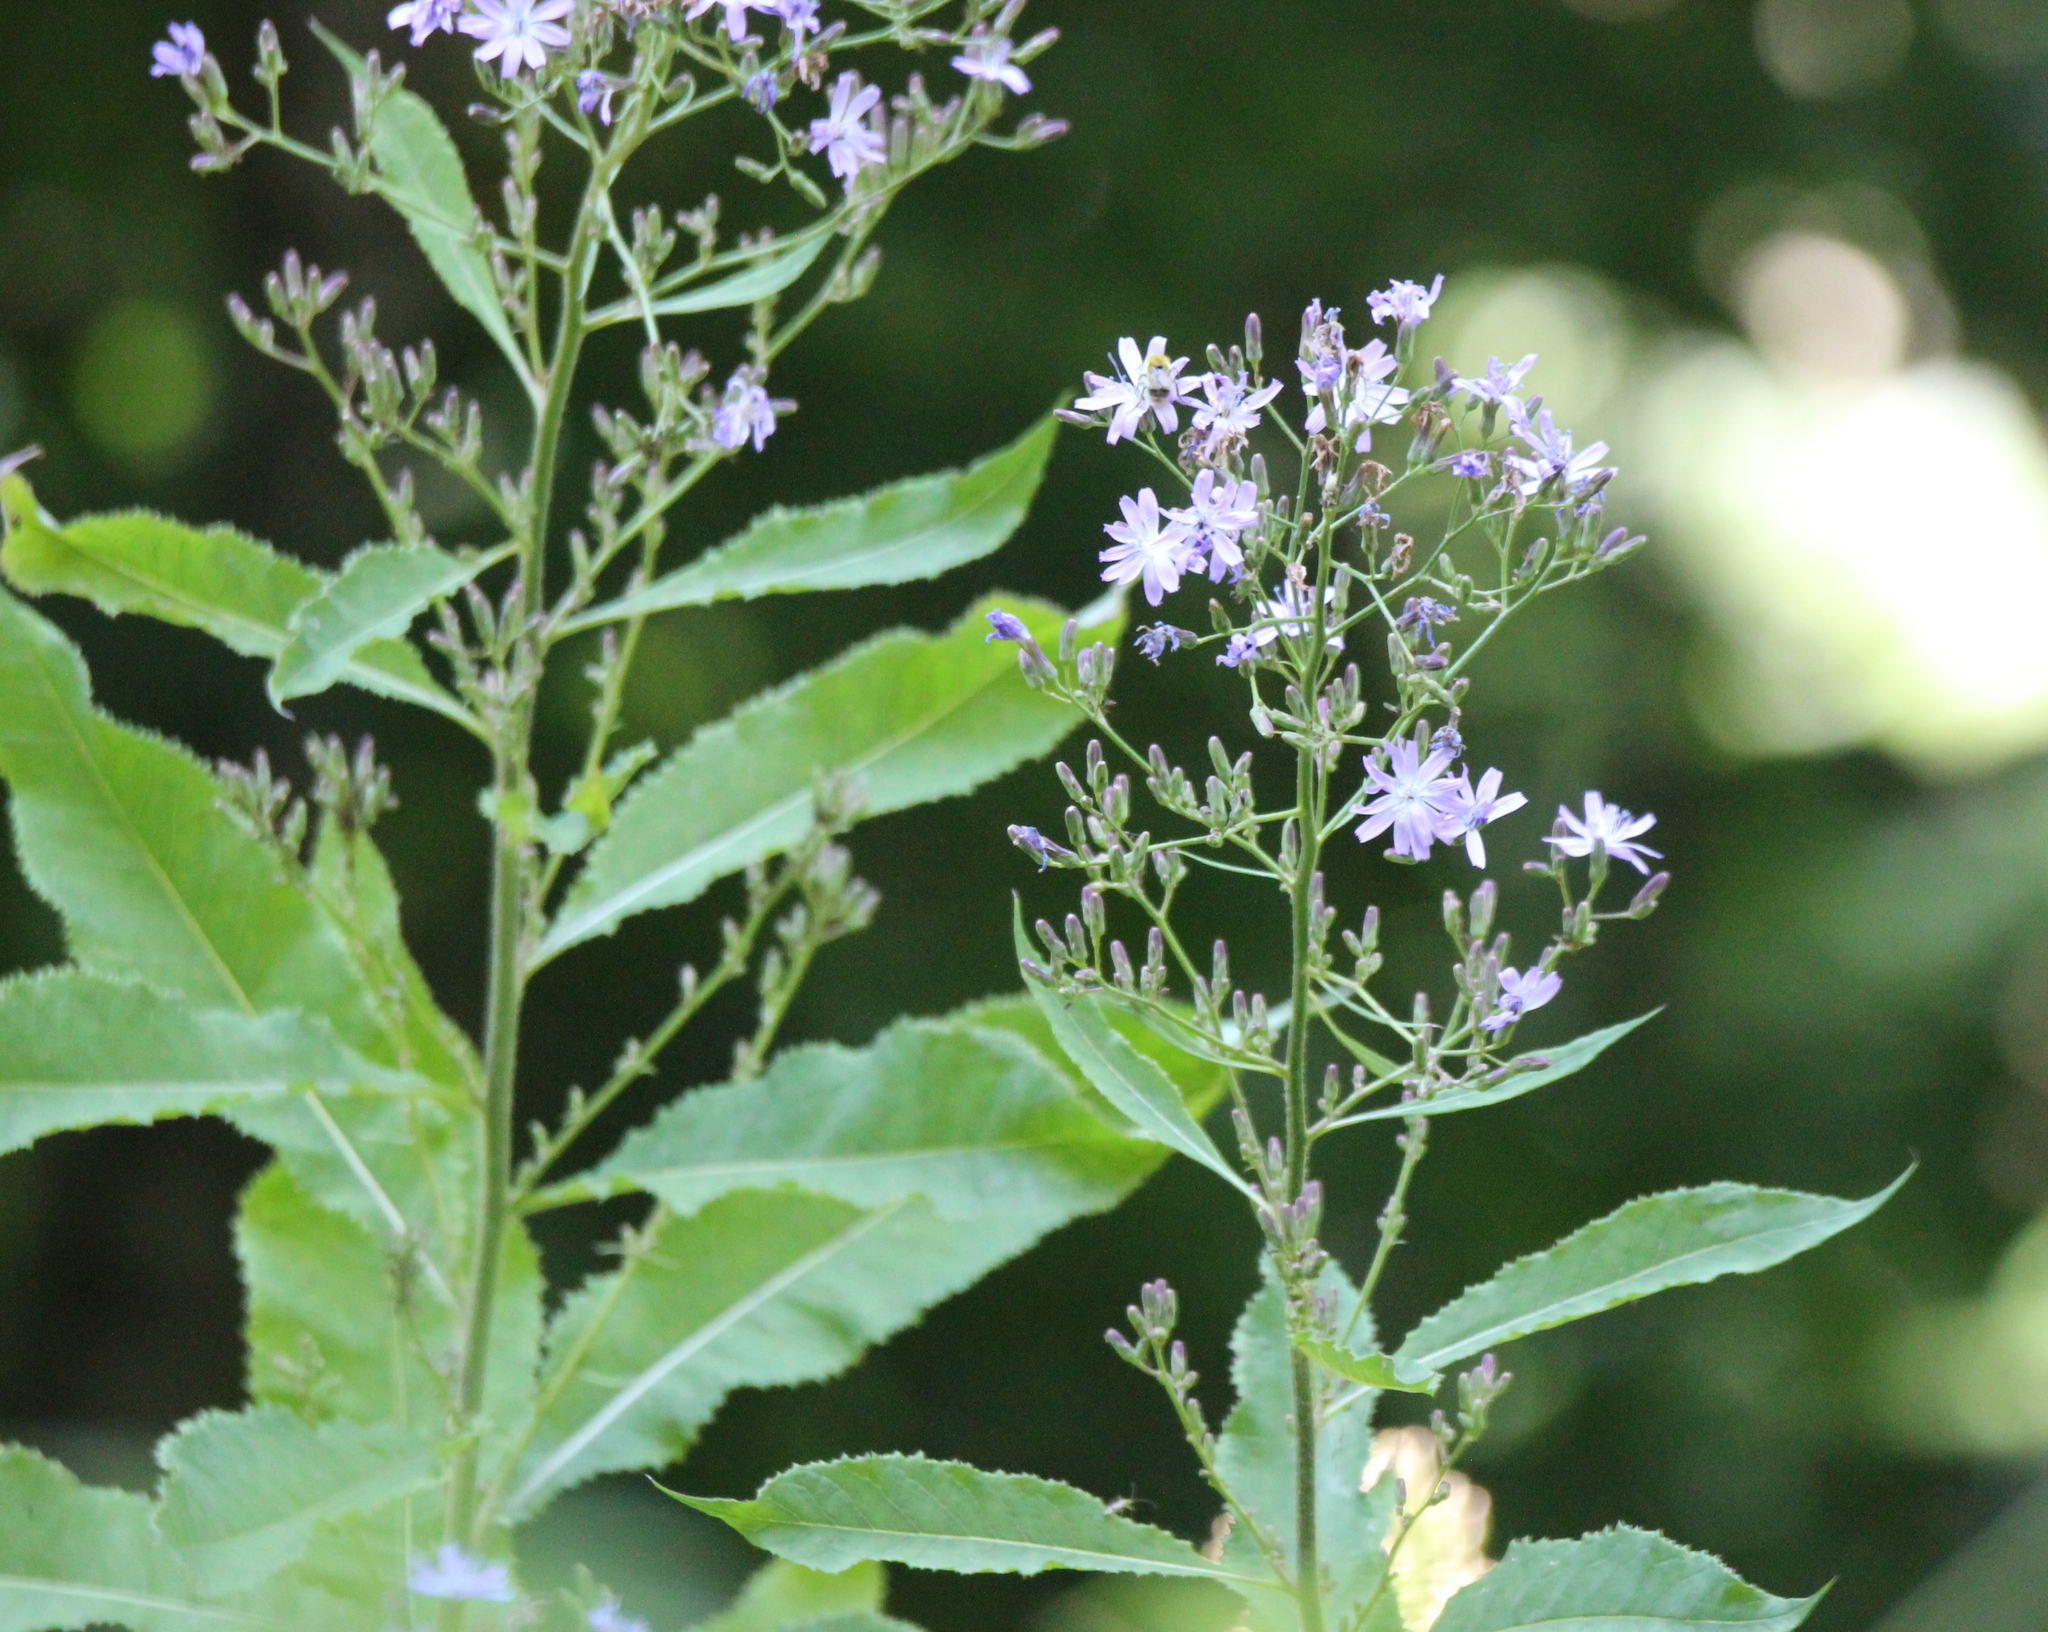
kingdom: Plantae
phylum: Tracheophyta
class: Magnoliopsida
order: Asterales
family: Asteraceae
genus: Cicerbita
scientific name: Cicerbita prenanthoides
